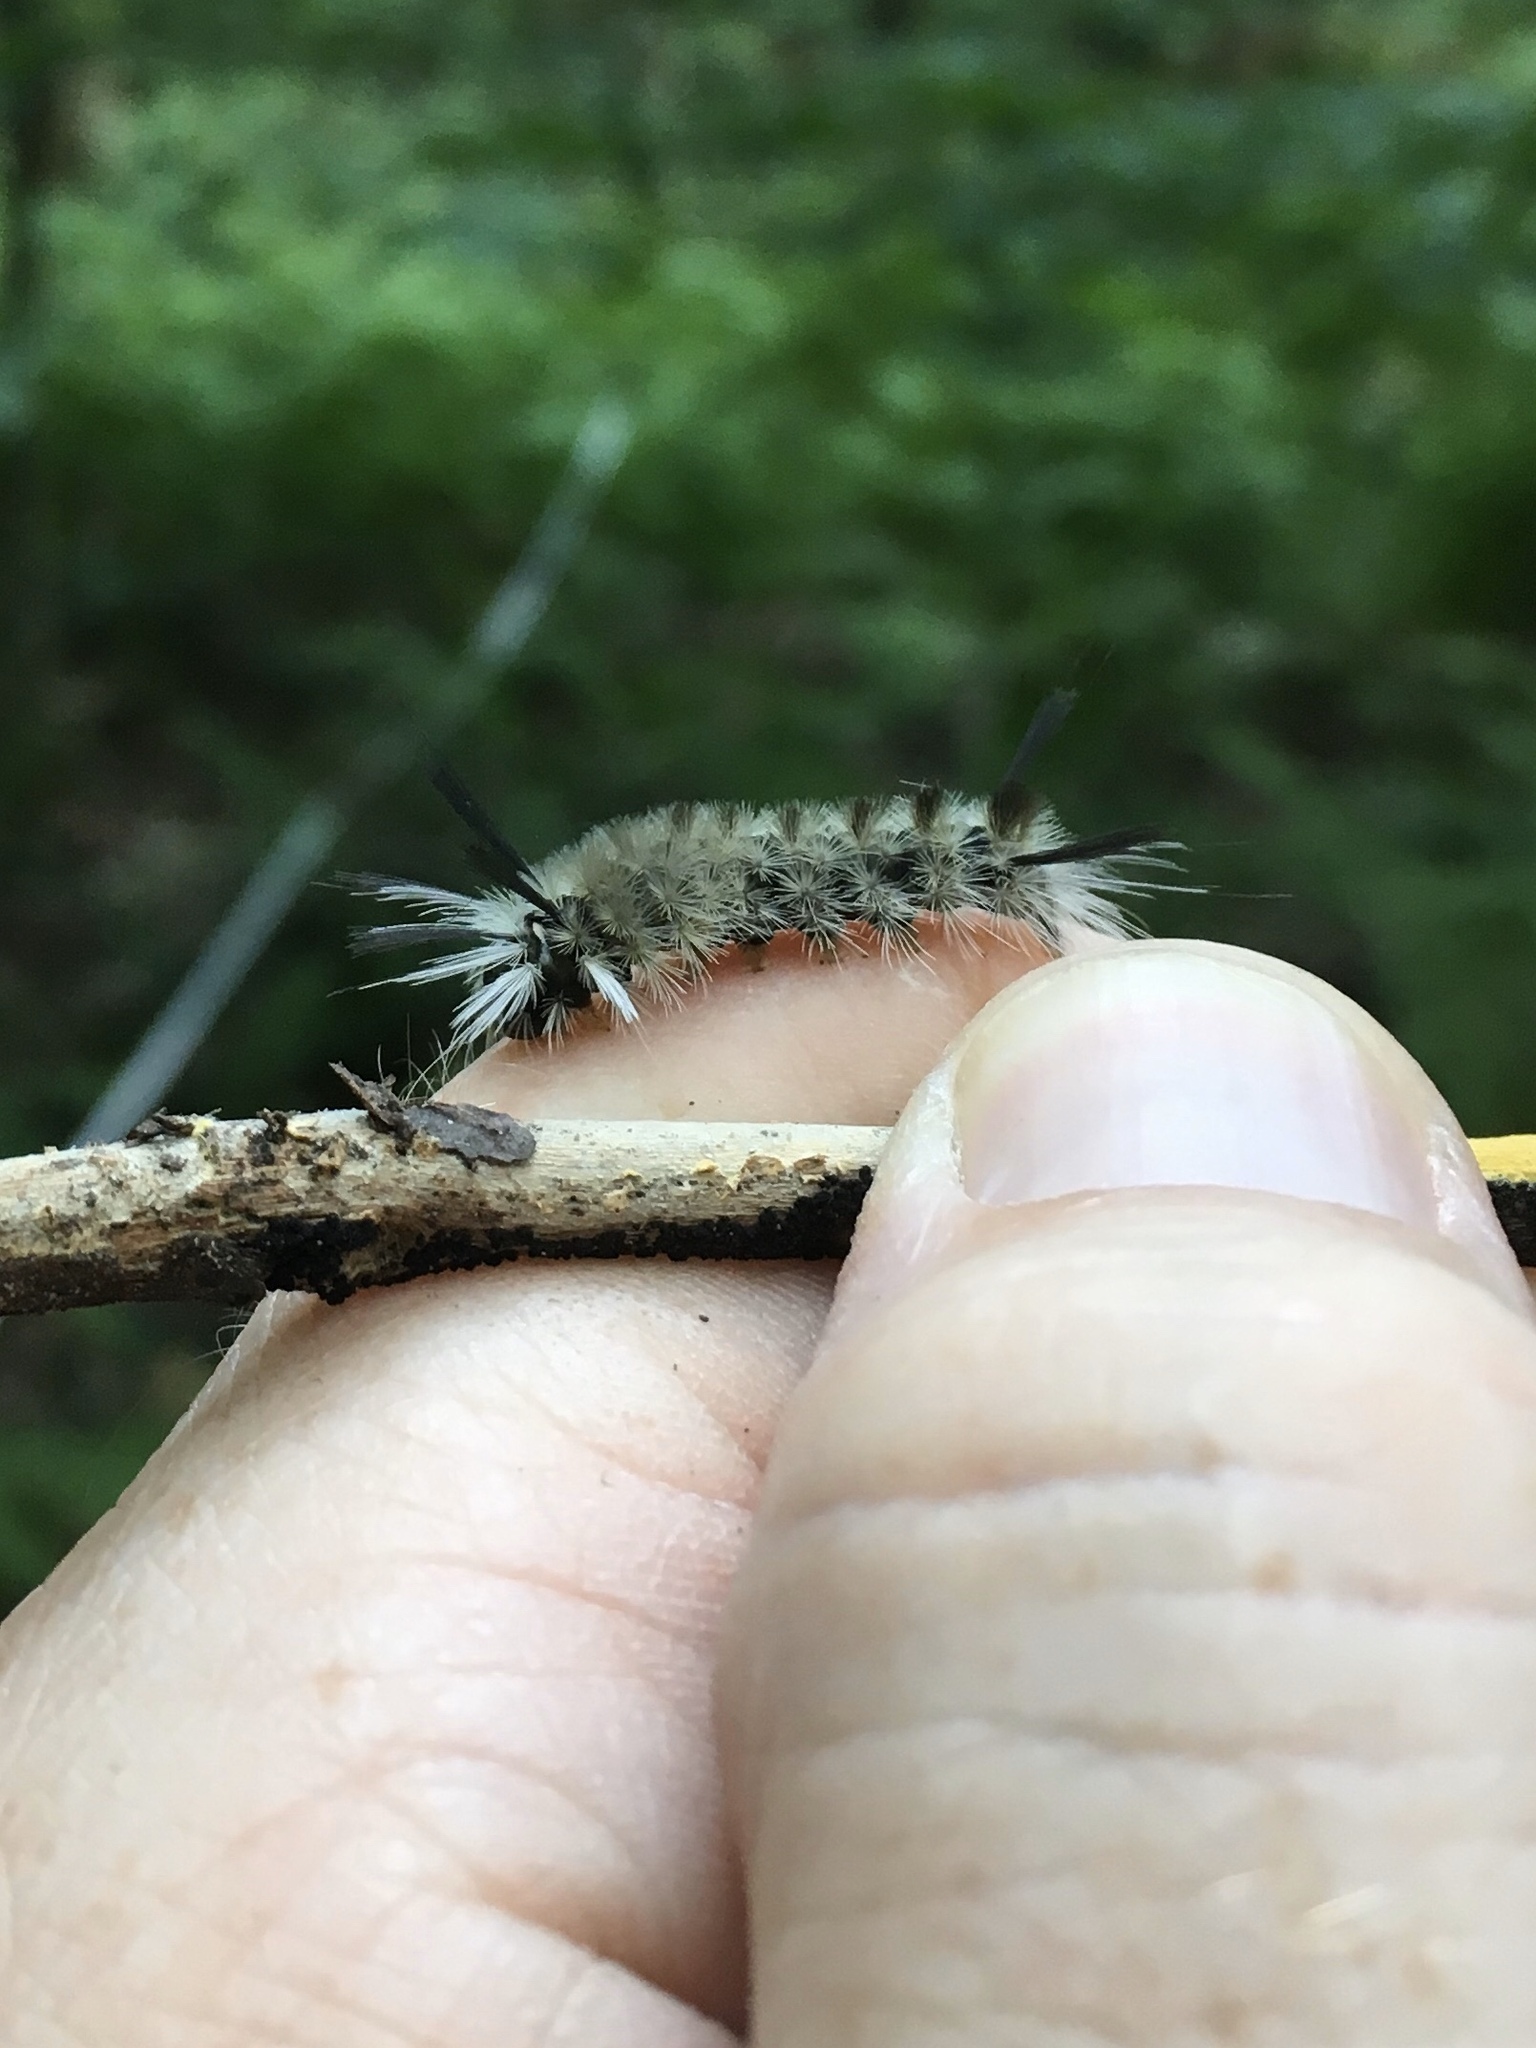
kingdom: Animalia
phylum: Arthropoda
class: Insecta
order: Lepidoptera
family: Erebidae
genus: Halysidota
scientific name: Halysidota tessellaris
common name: Banded tussock moth
